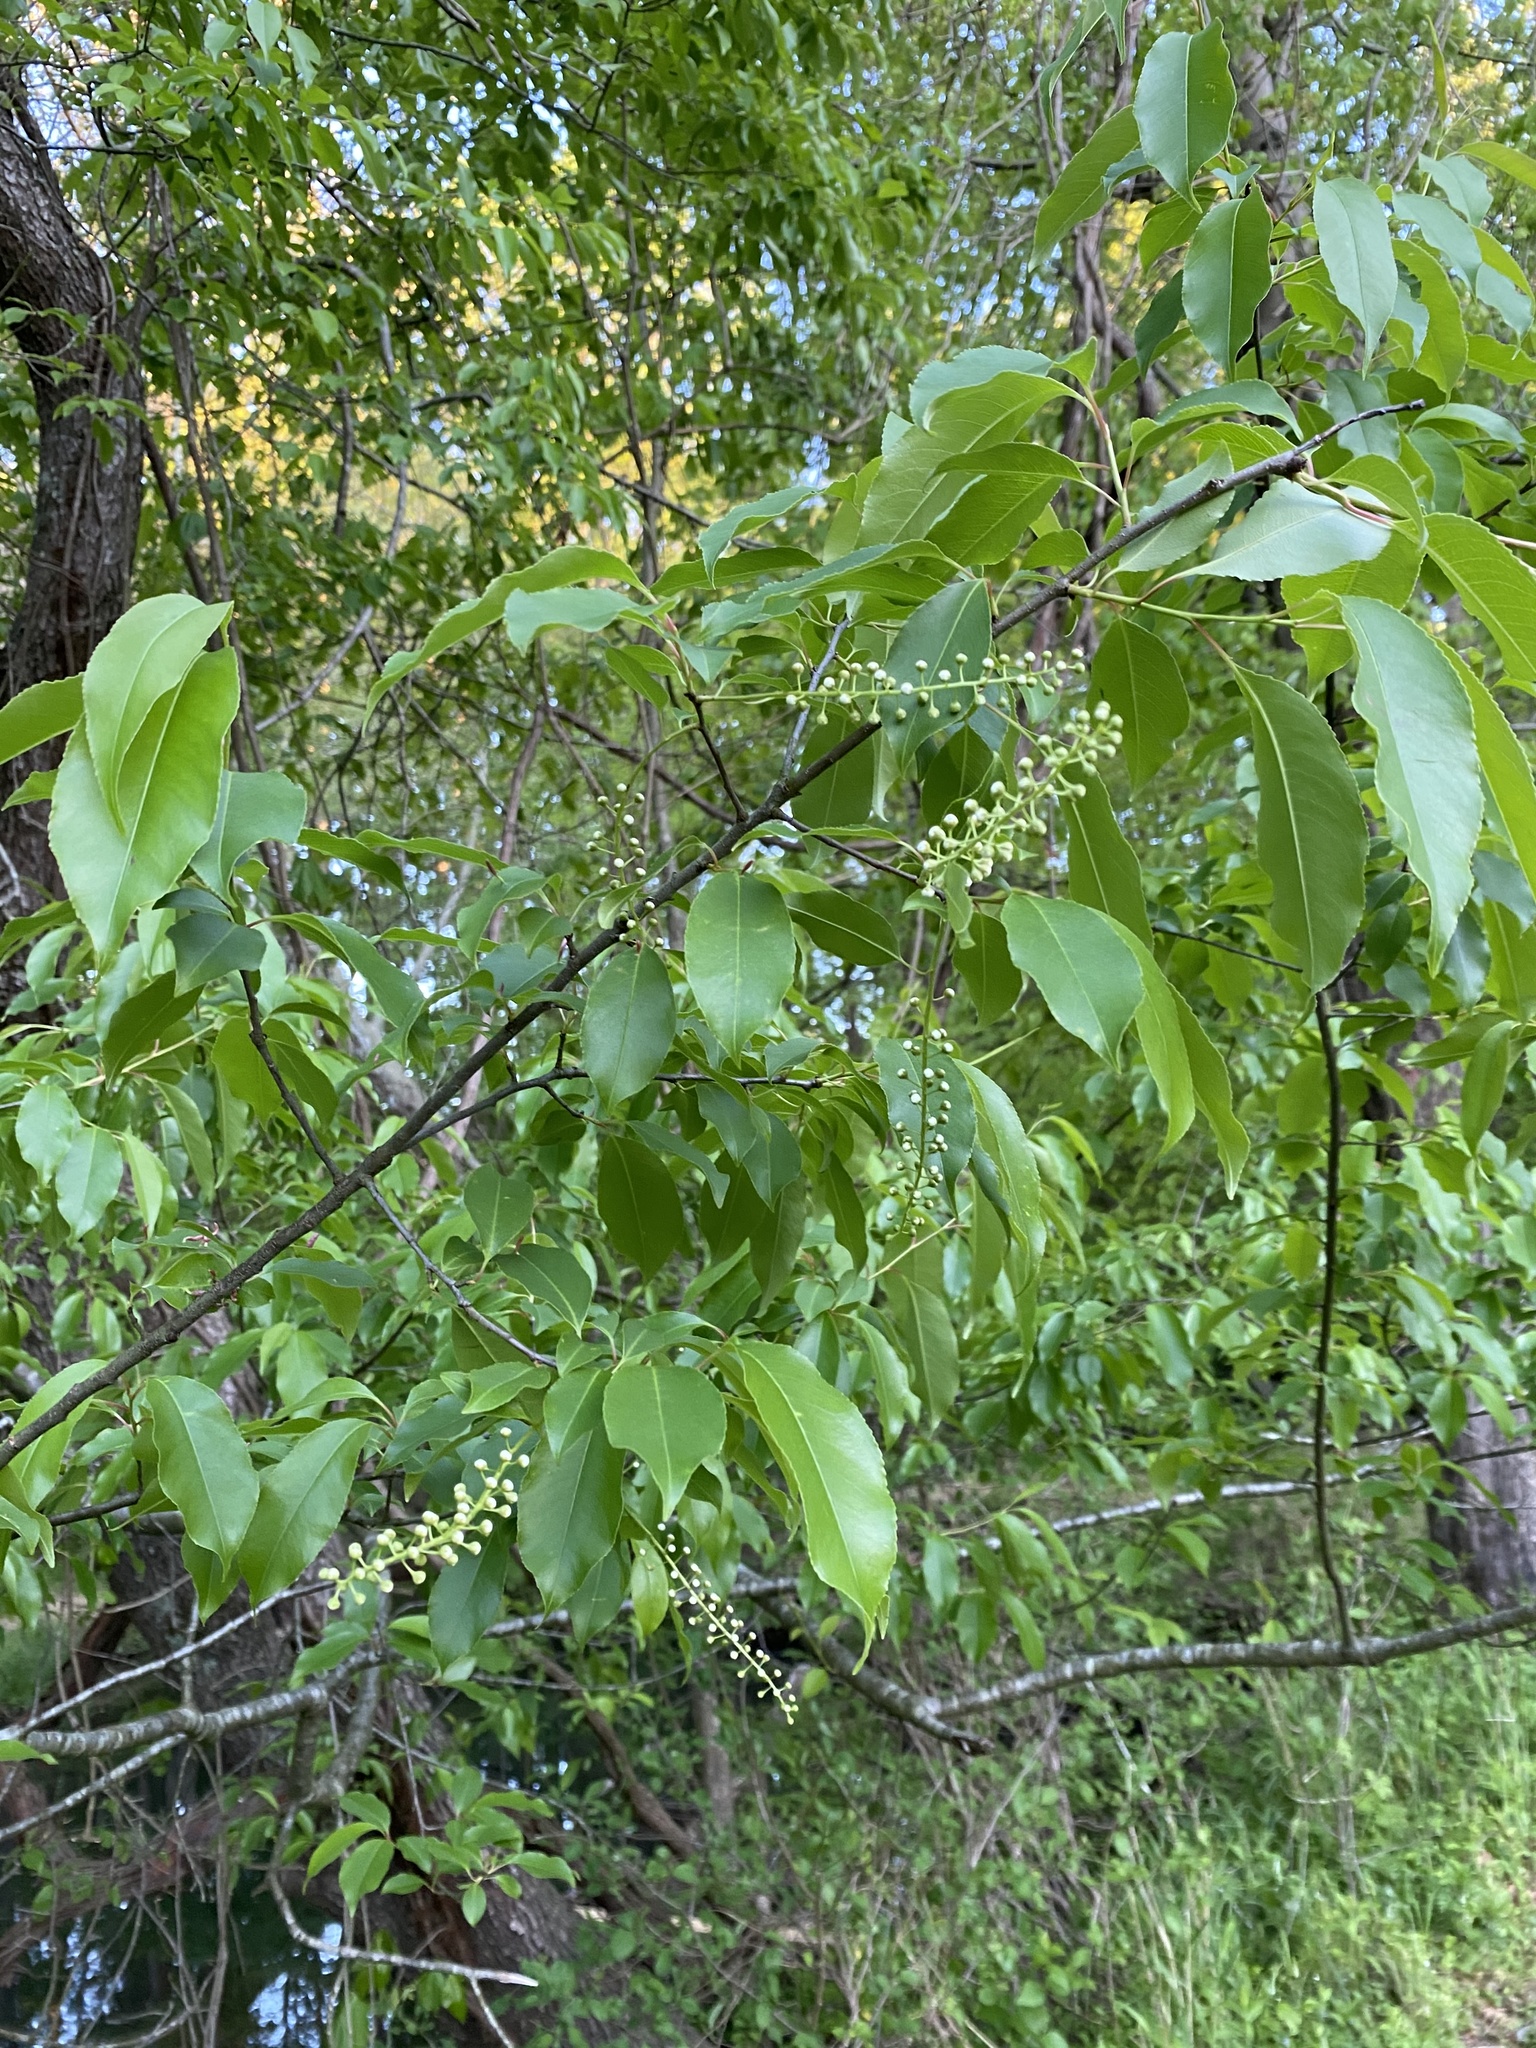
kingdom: Plantae
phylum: Tracheophyta
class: Magnoliopsida
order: Rosales
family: Rosaceae
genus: Prunus
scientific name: Prunus serotina
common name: Black cherry
